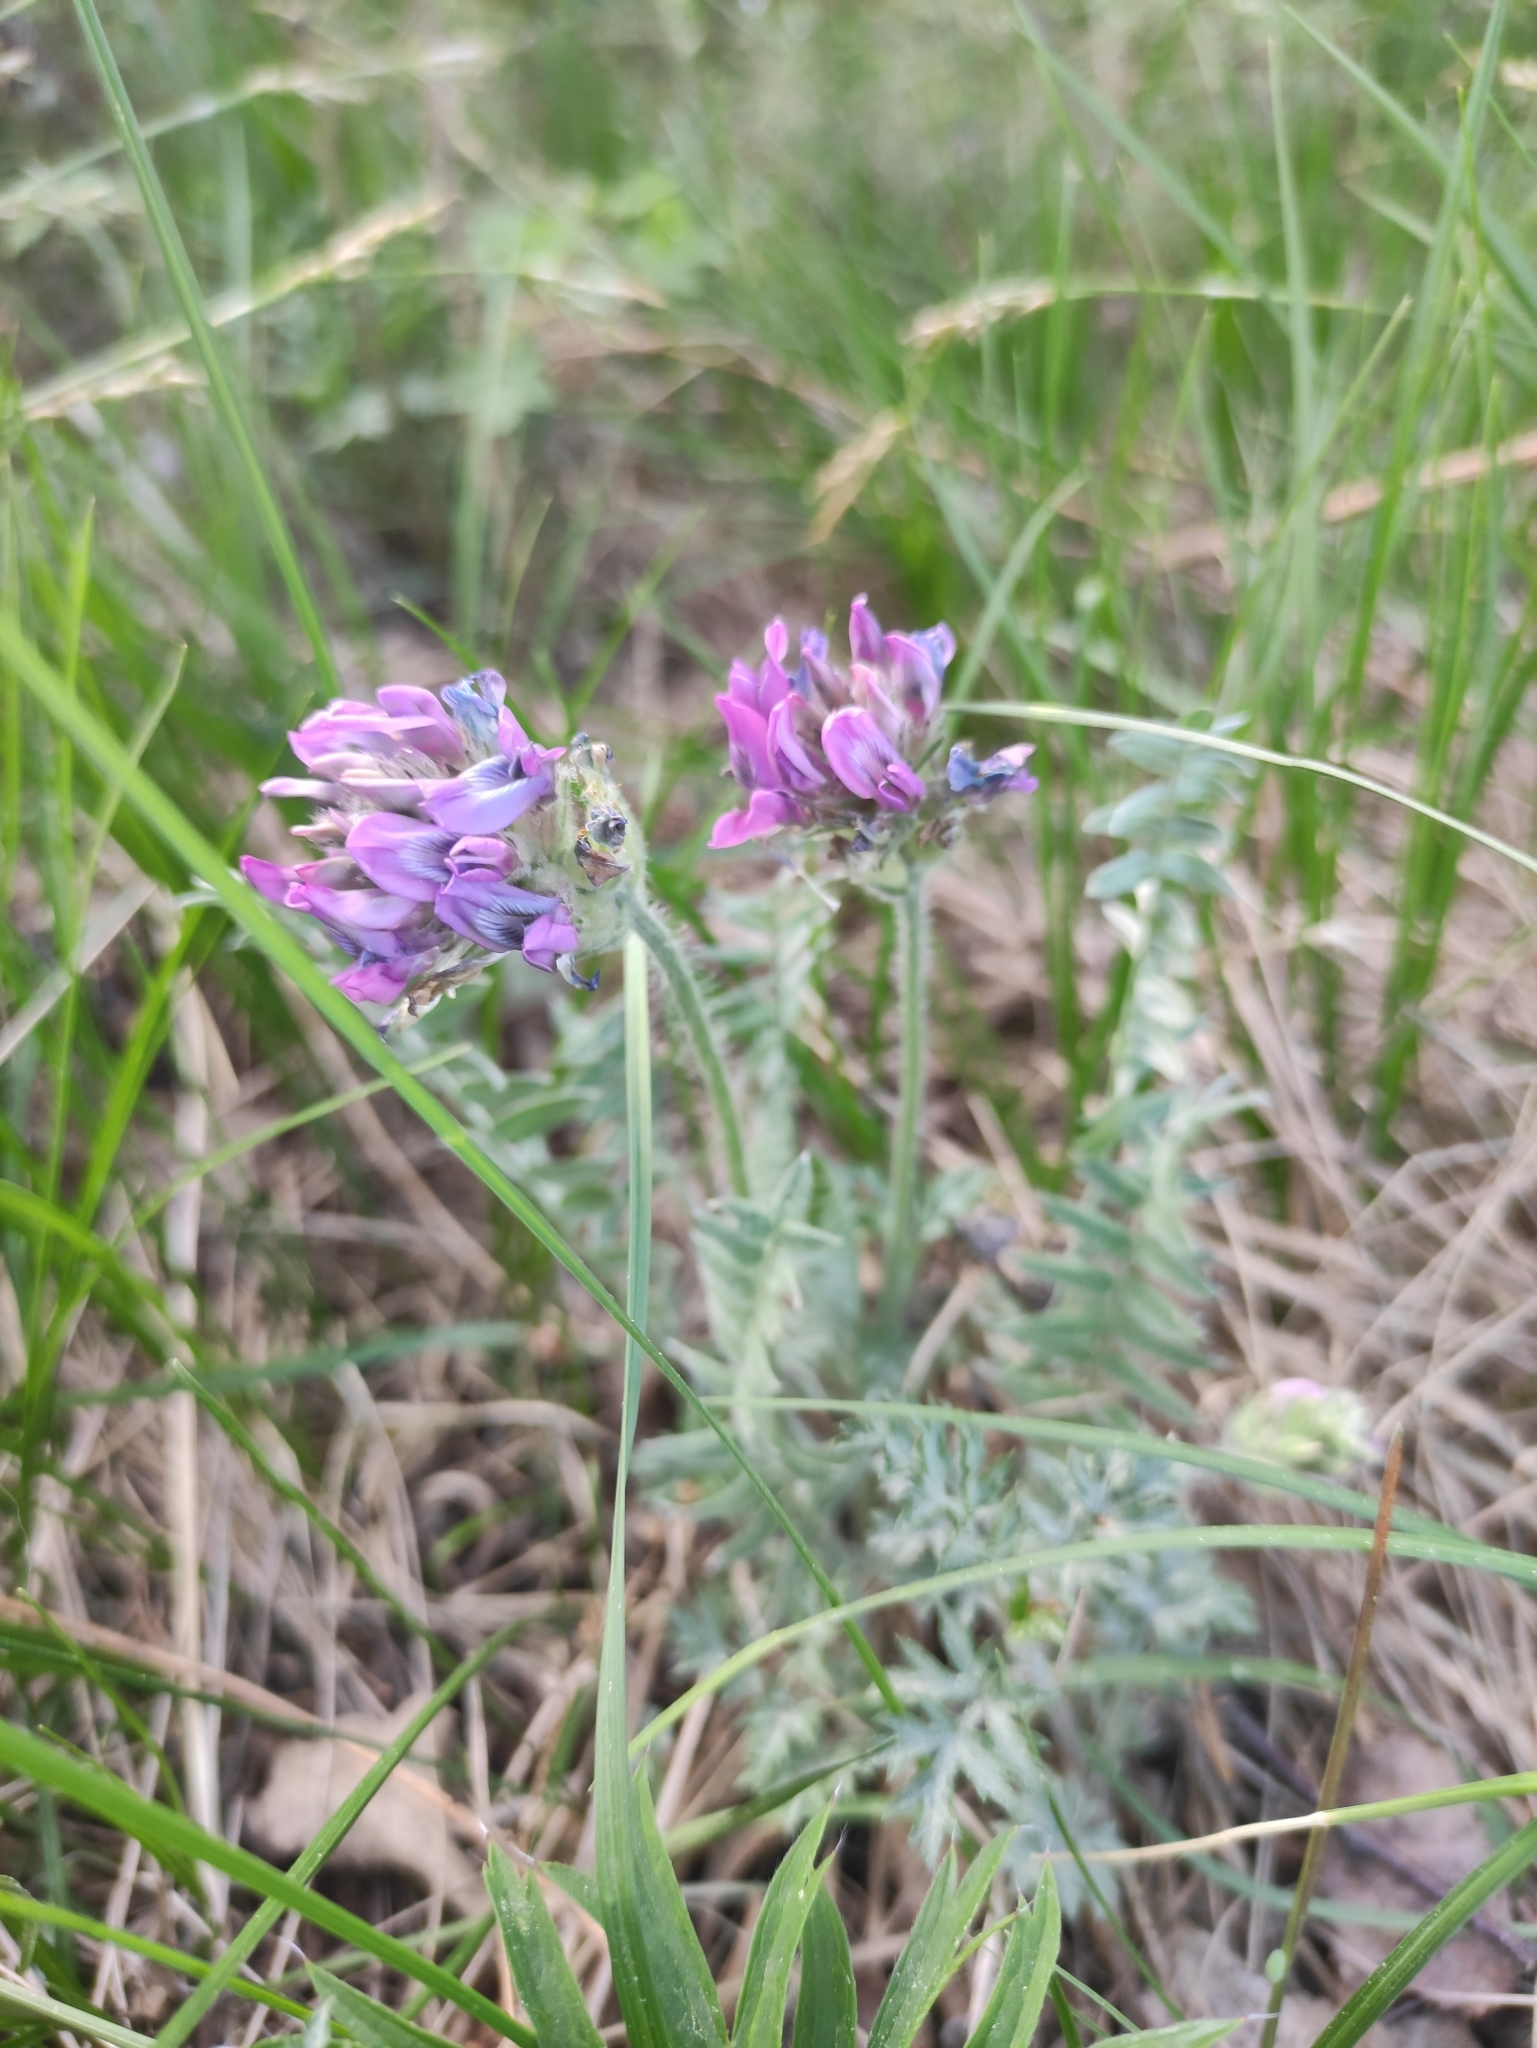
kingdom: Plantae
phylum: Tracheophyta
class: Magnoliopsida
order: Fabales
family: Fabaceae
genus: Oxytropis
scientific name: Oxytropis strobilacea
